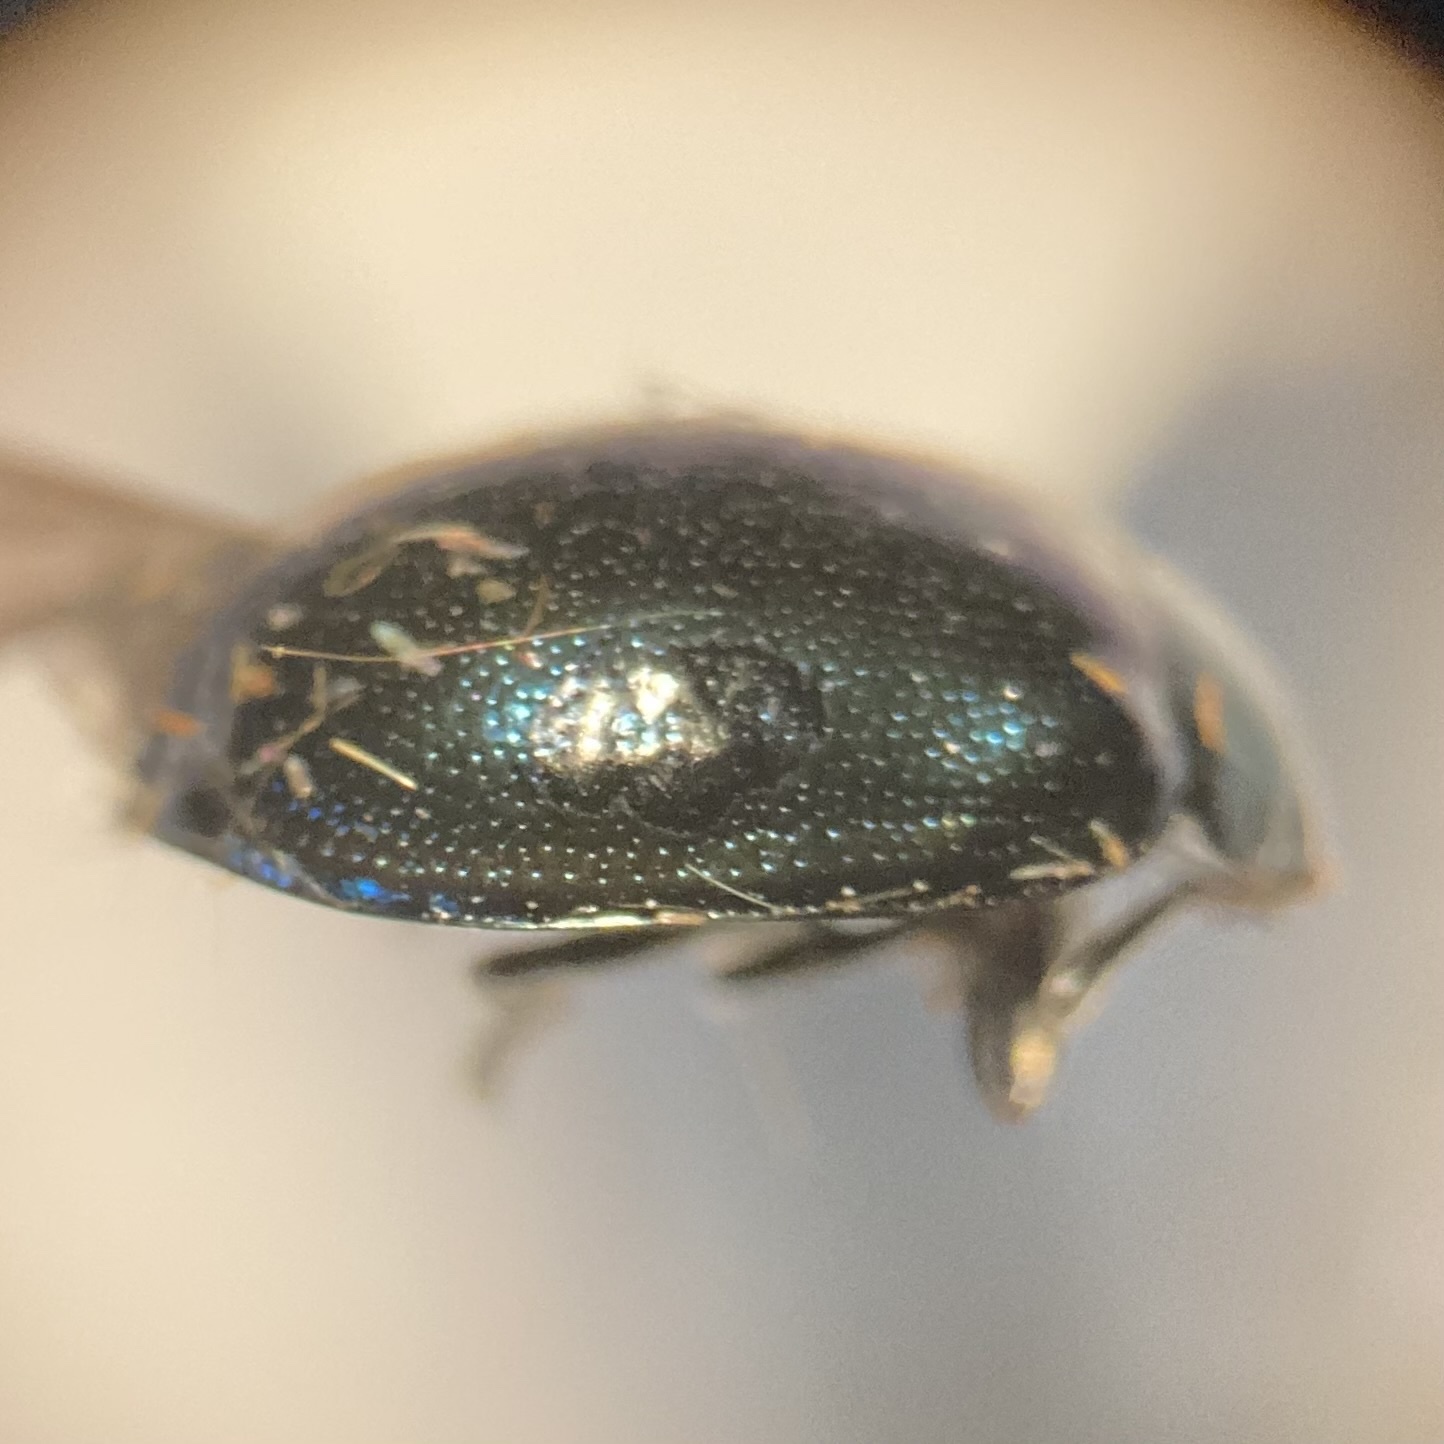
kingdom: Animalia
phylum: Arthropoda
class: Insecta
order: Coleoptera
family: Chrysomelidae
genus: Plagiodera
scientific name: Plagiodera versicolora
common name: Imported willow leaf beetle
